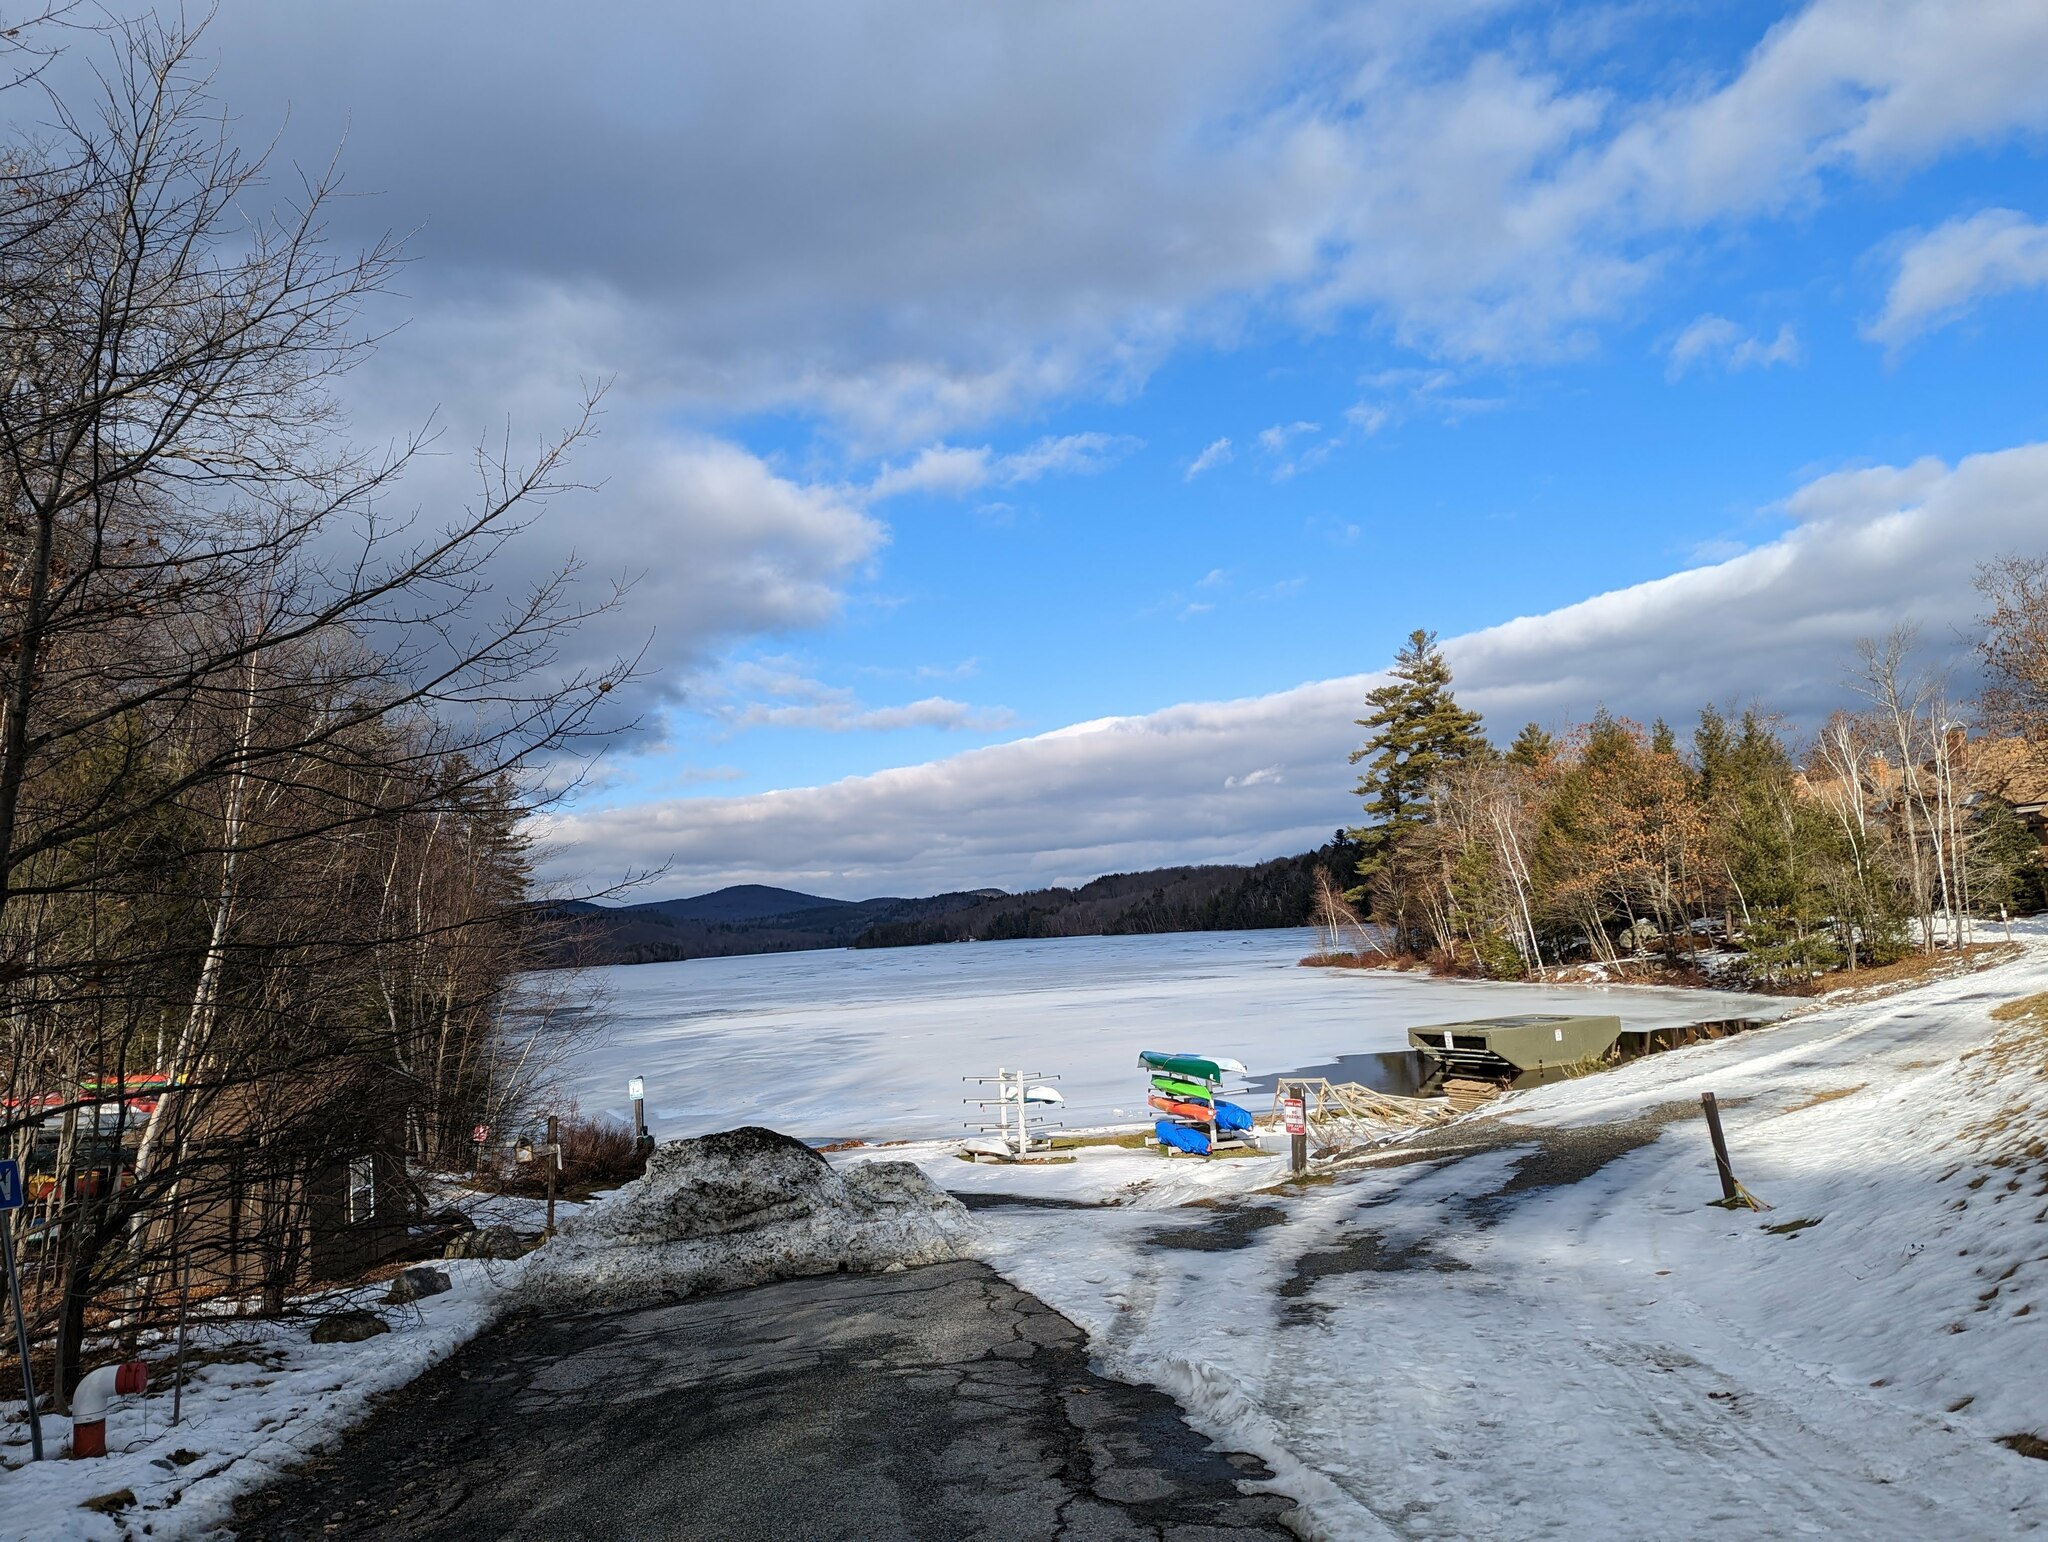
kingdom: Plantae
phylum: Tracheophyta
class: Pinopsida
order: Pinales
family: Pinaceae
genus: Pinus
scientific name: Pinus strobus
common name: Weymouth pine
